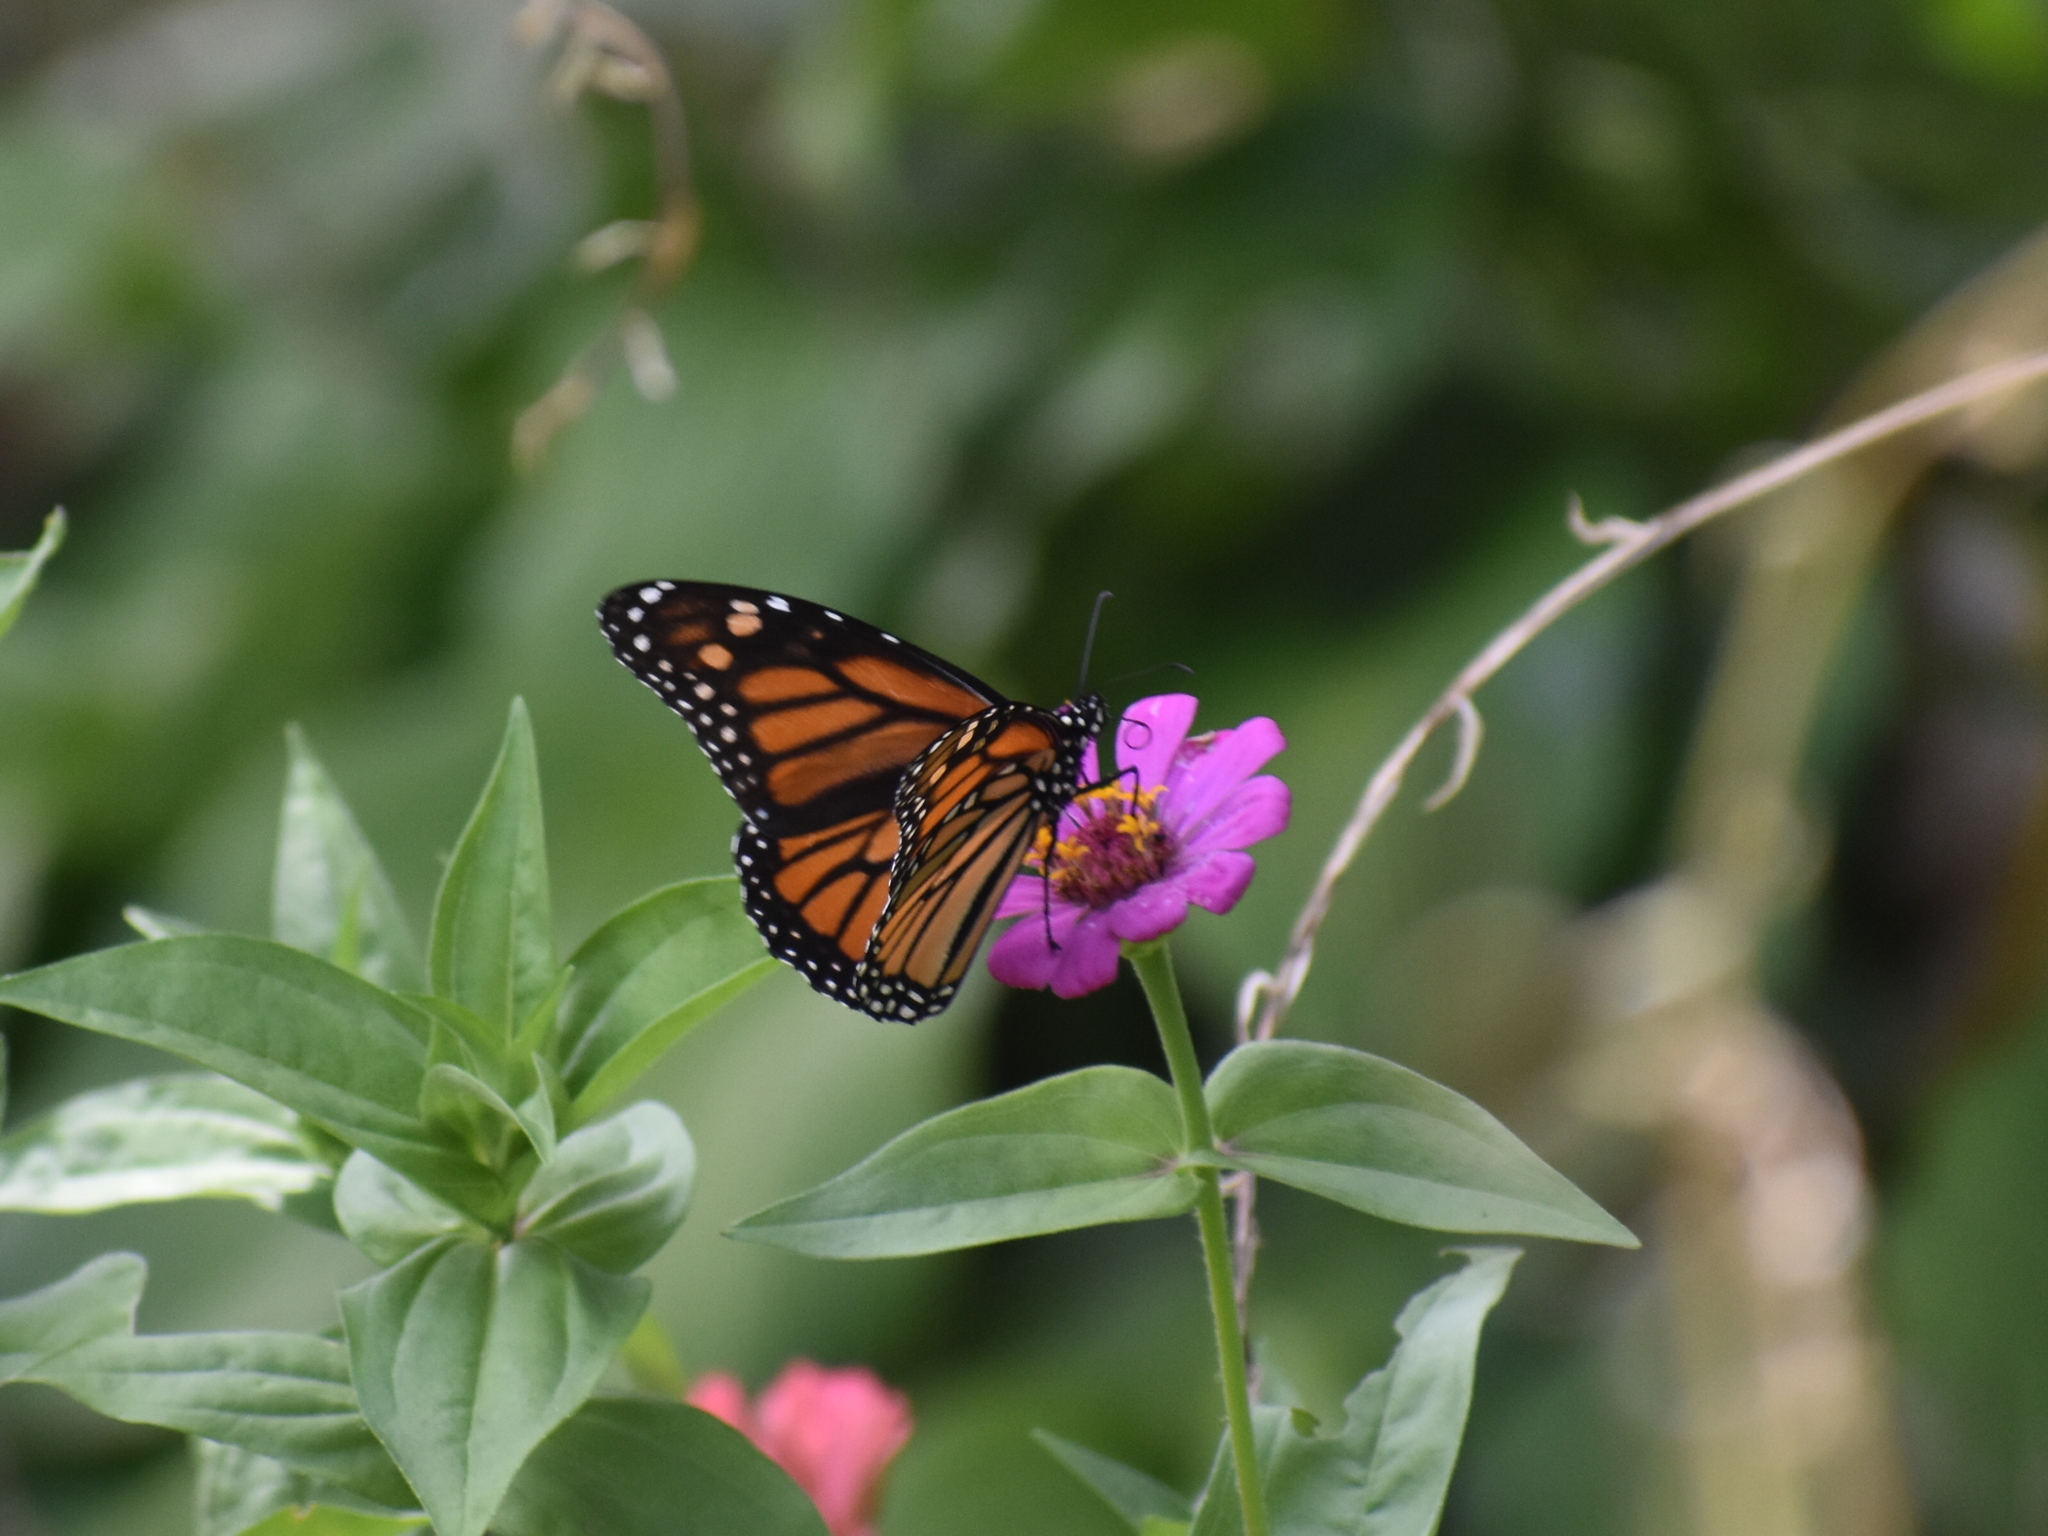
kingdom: Animalia
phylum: Arthropoda
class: Insecta
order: Lepidoptera
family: Nymphalidae
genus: Danaus
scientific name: Danaus plexippus
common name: Monarch
